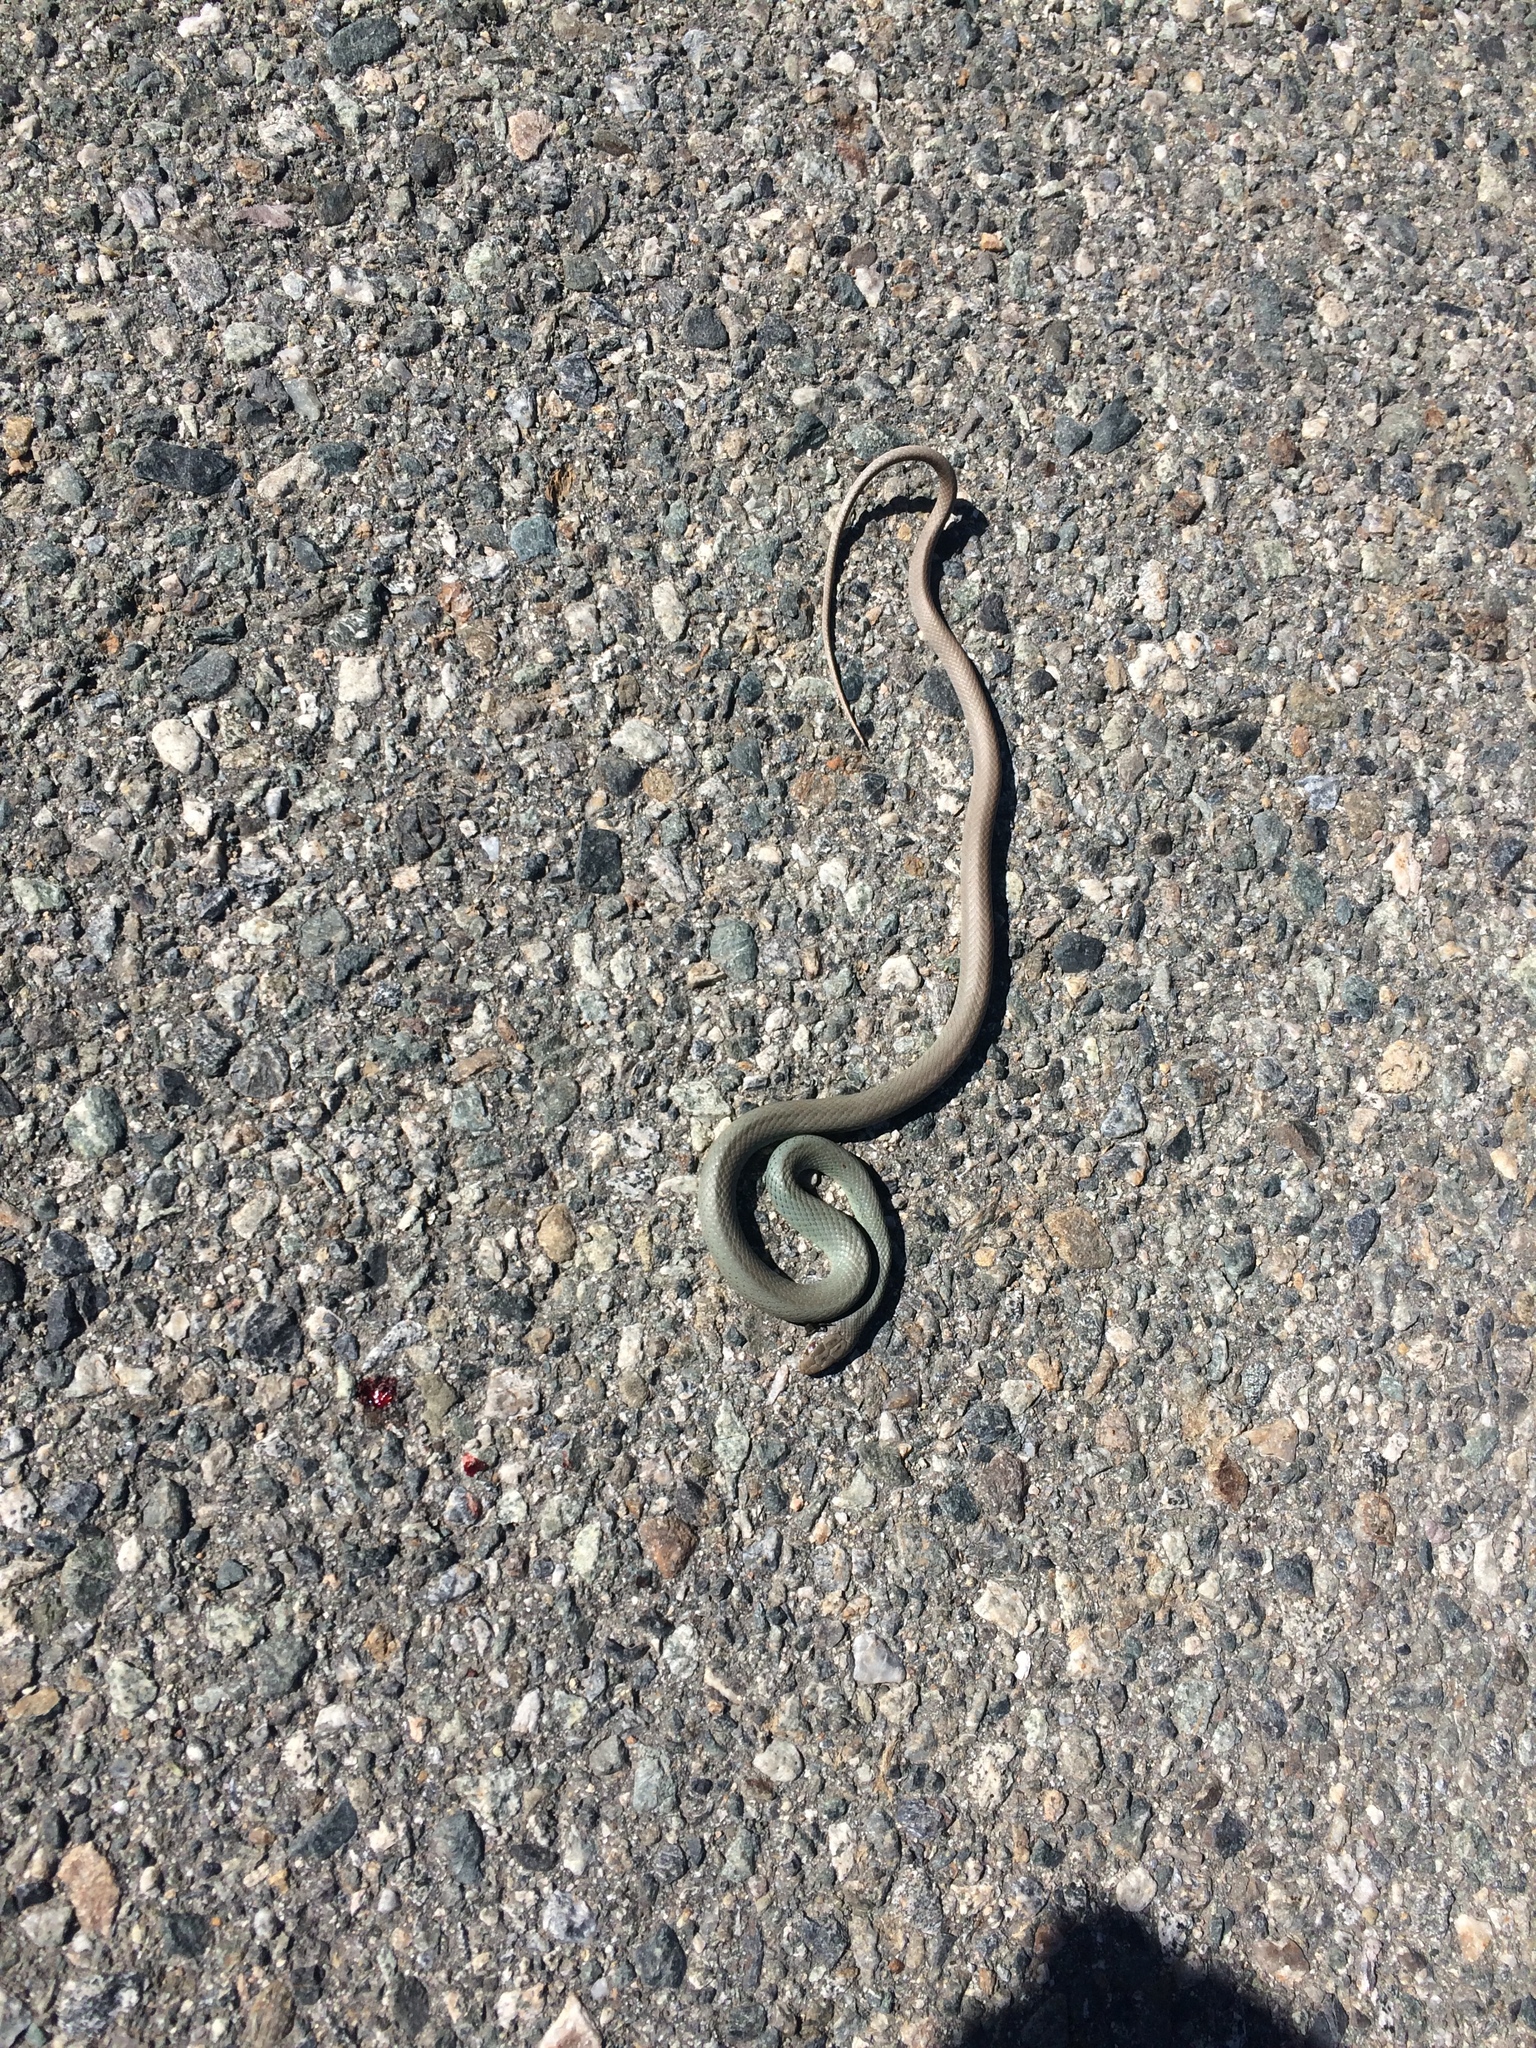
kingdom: Animalia
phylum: Chordata
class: Squamata
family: Colubridae
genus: Coluber
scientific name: Coluber constrictor
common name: Eastern racer
